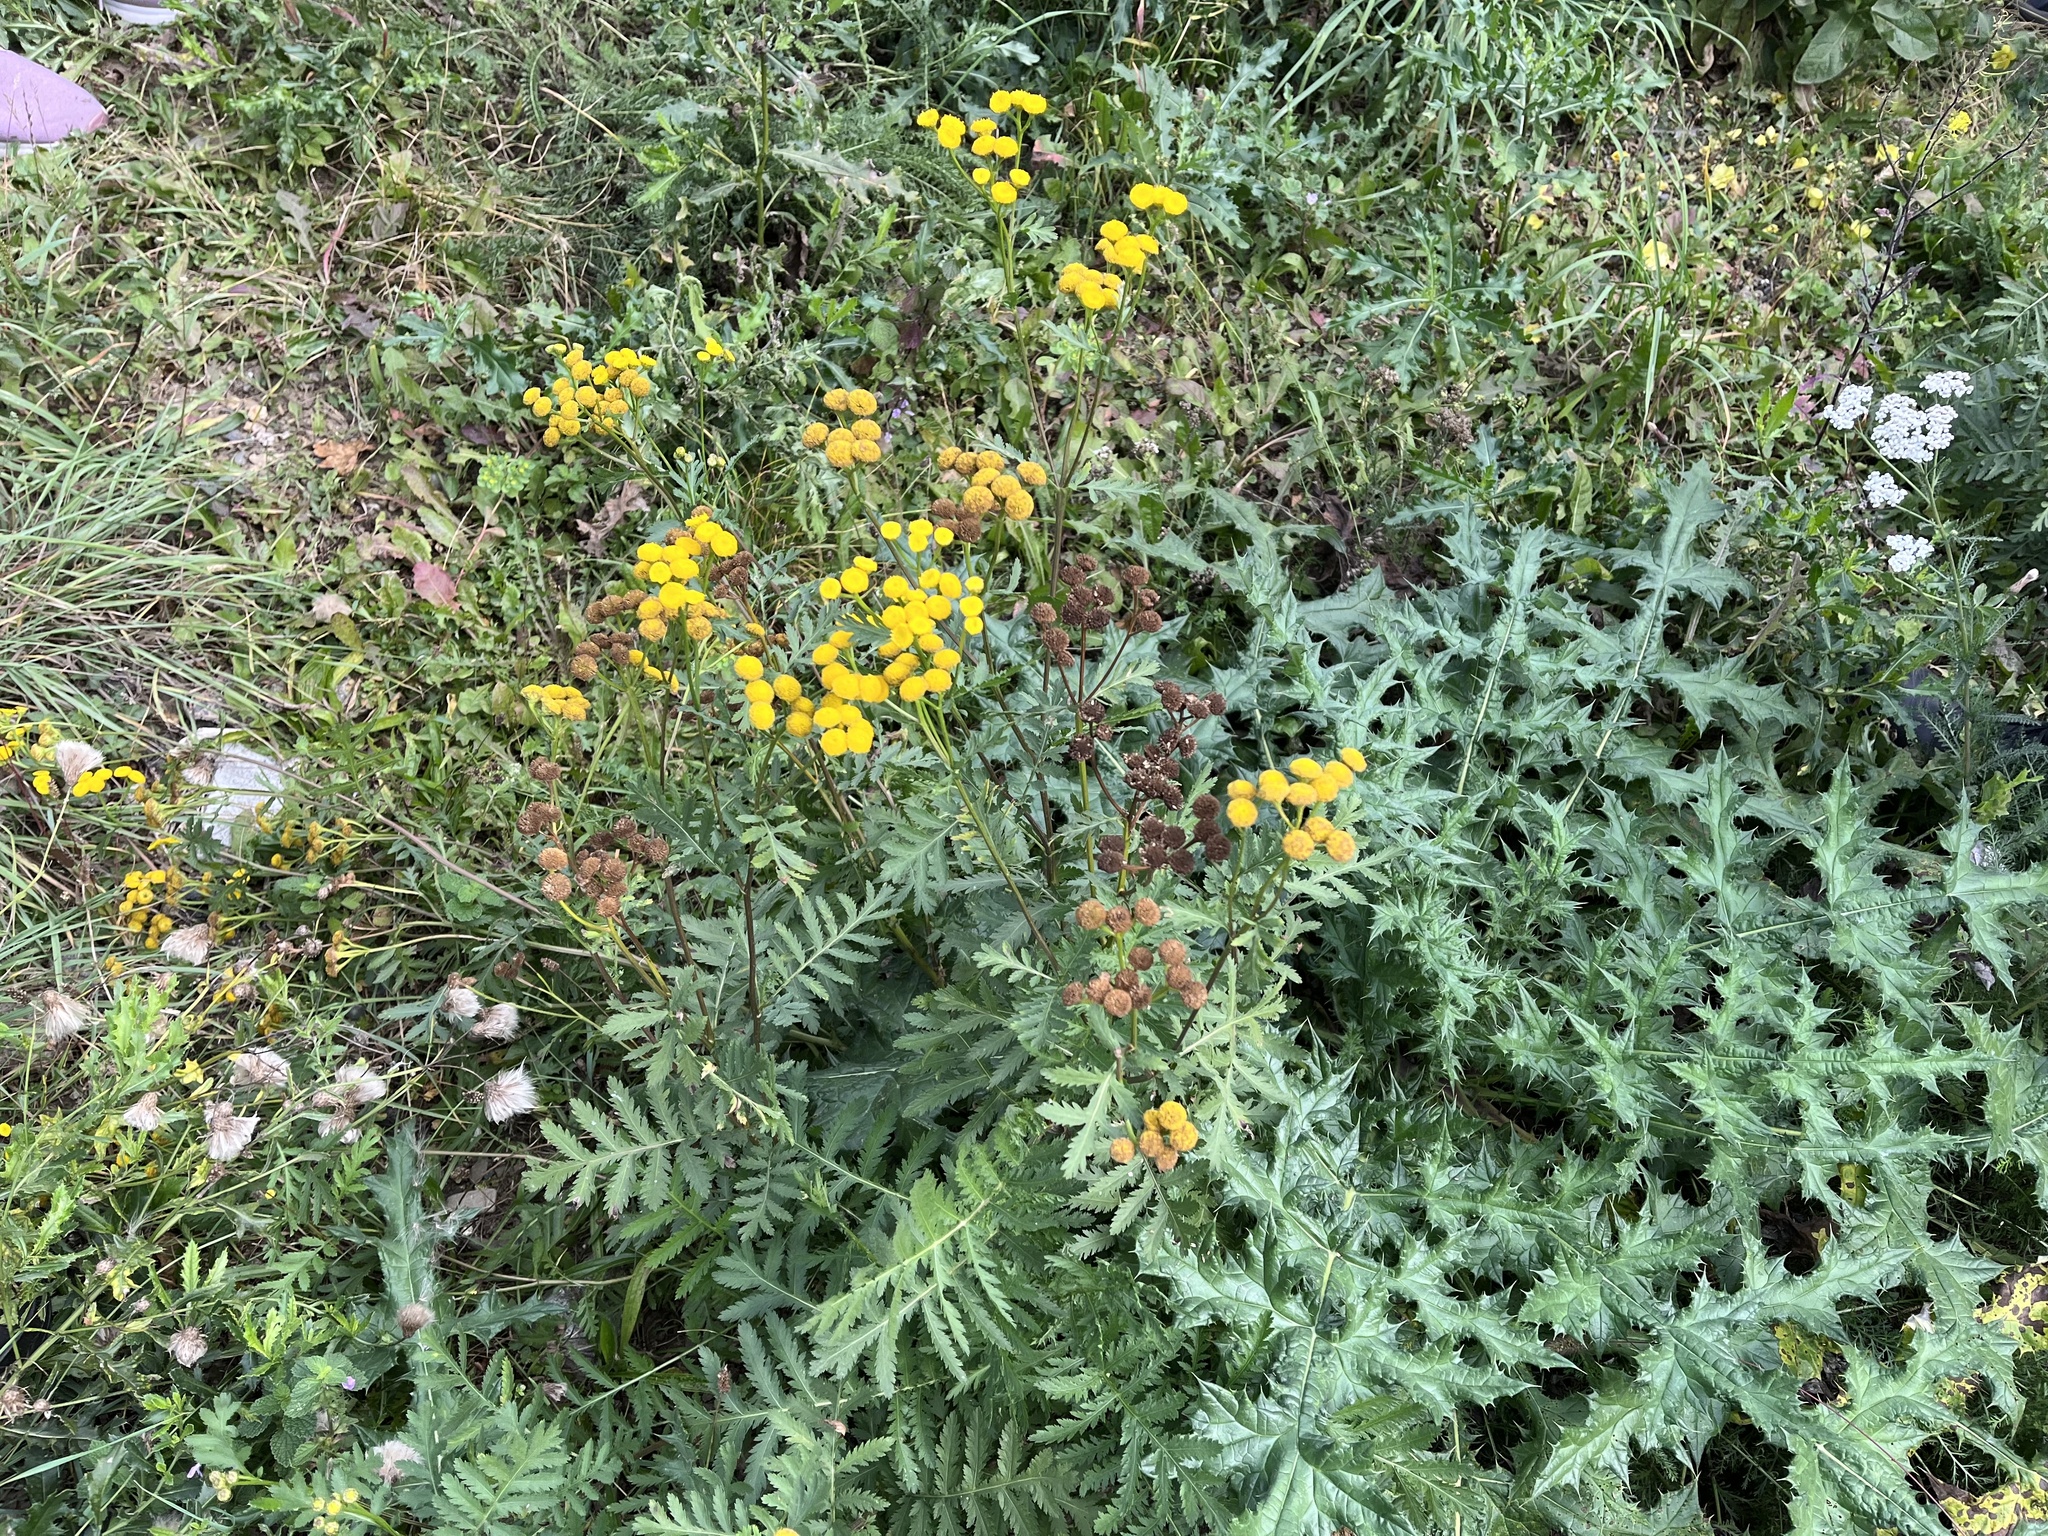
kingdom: Plantae
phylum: Tracheophyta
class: Magnoliopsida
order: Asterales
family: Asteraceae
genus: Tanacetum
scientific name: Tanacetum vulgare
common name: Common tansy
